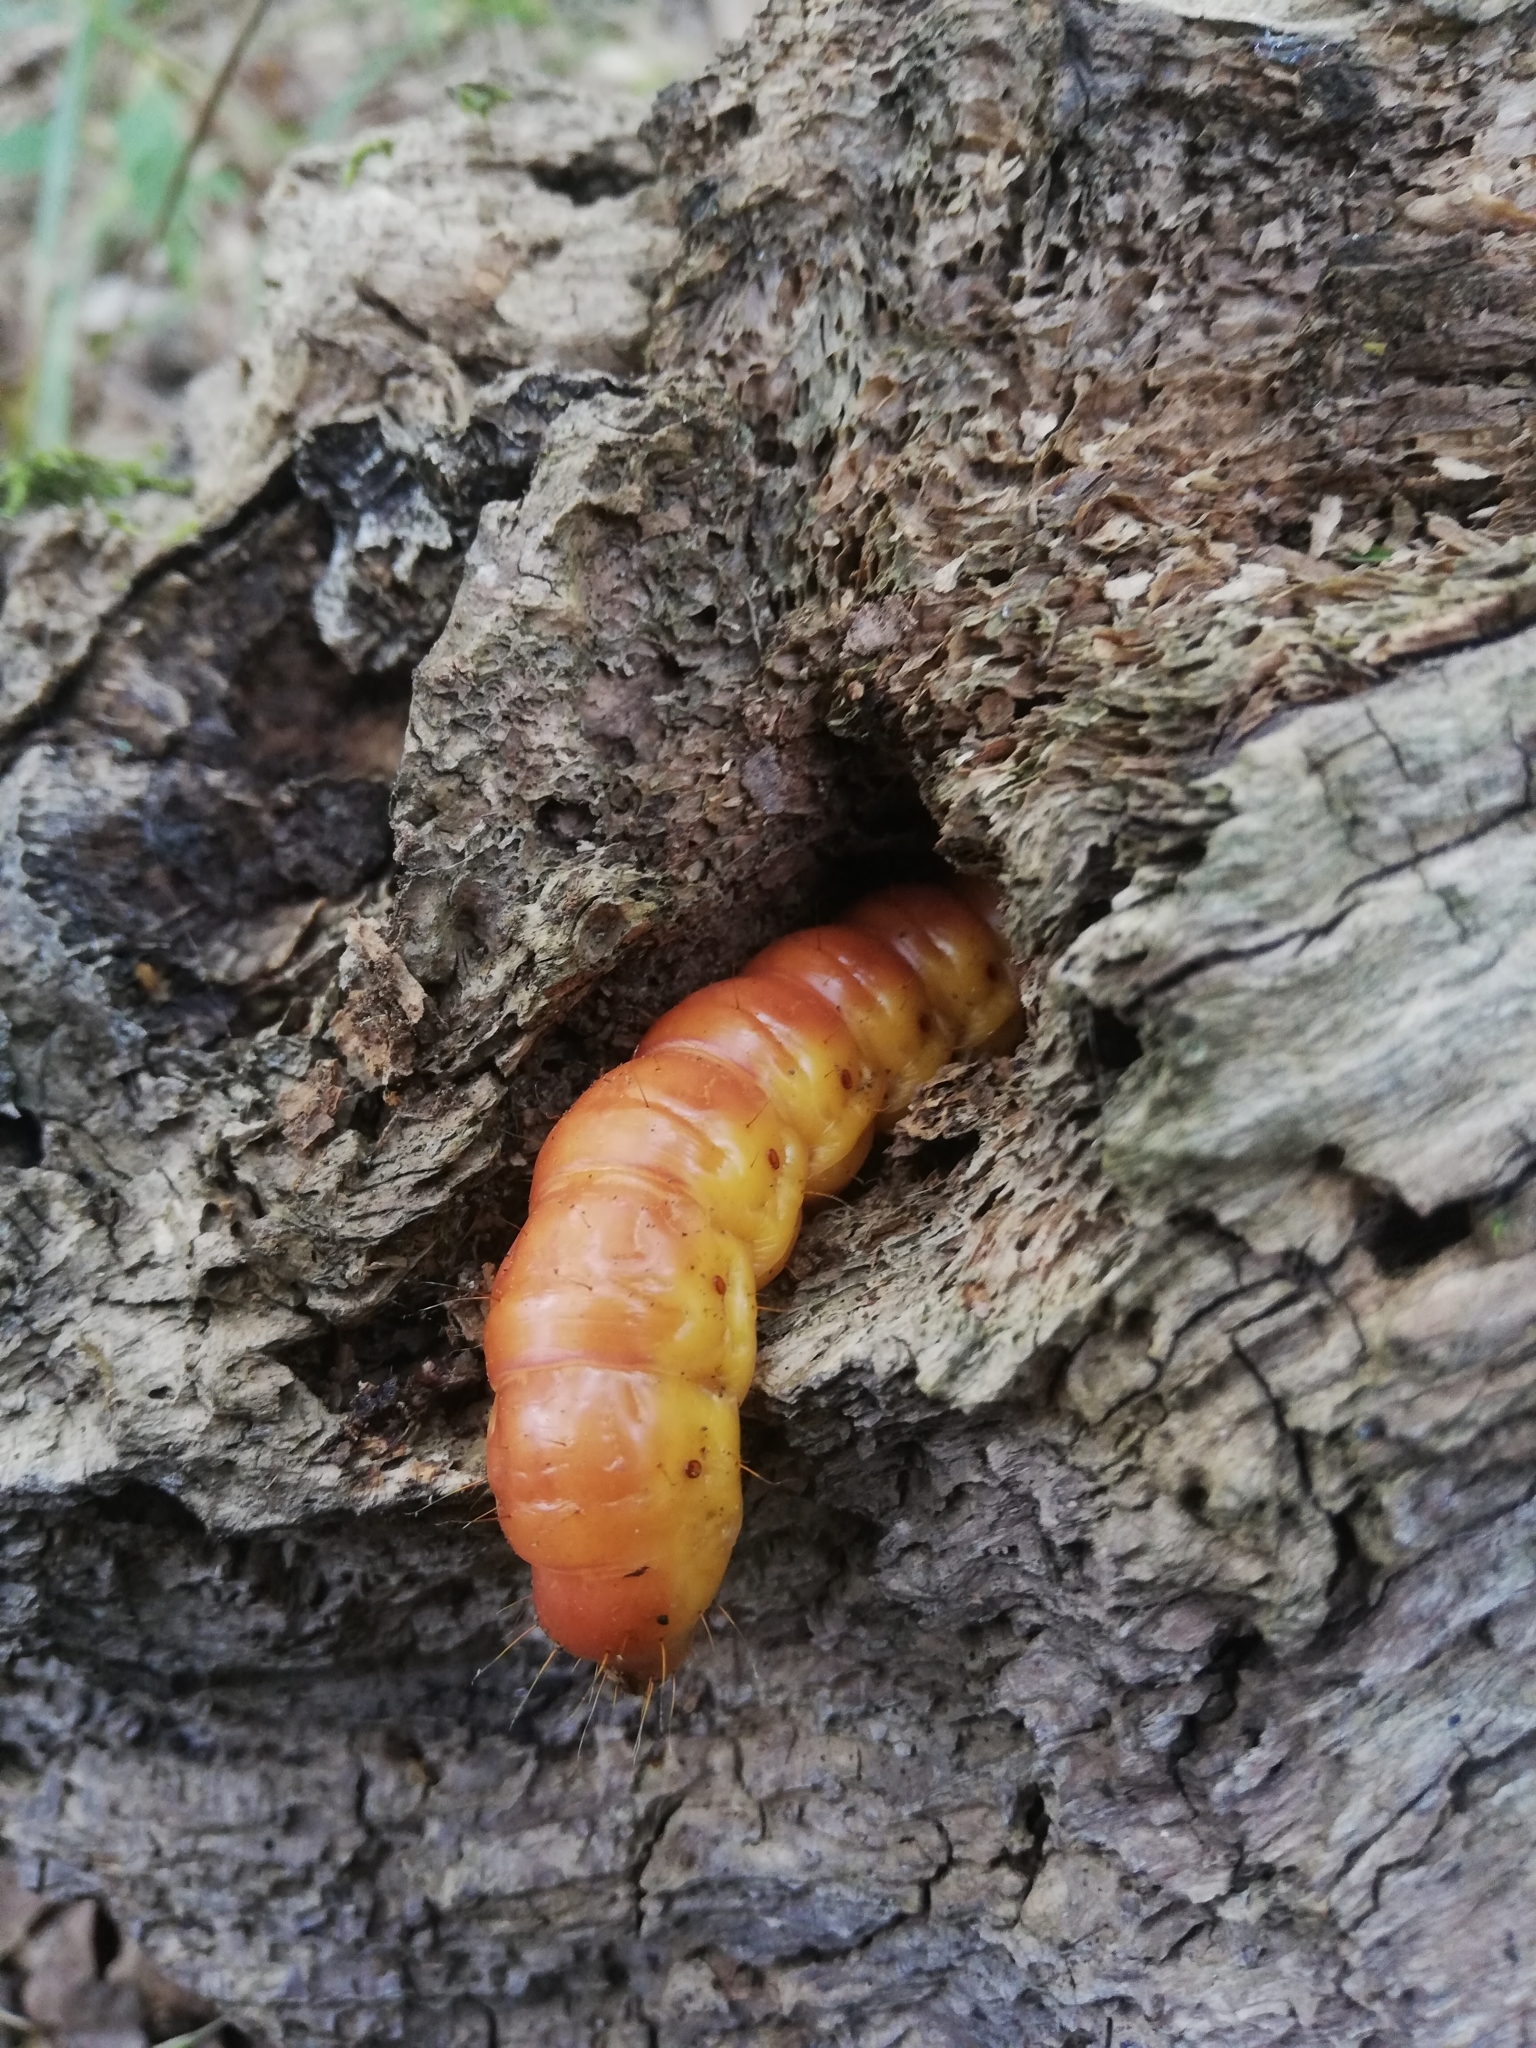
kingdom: Animalia
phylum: Arthropoda
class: Insecta
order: Lepidoptera
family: Cossidae
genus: Cossus
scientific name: Cossus cossus
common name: Goat moth
